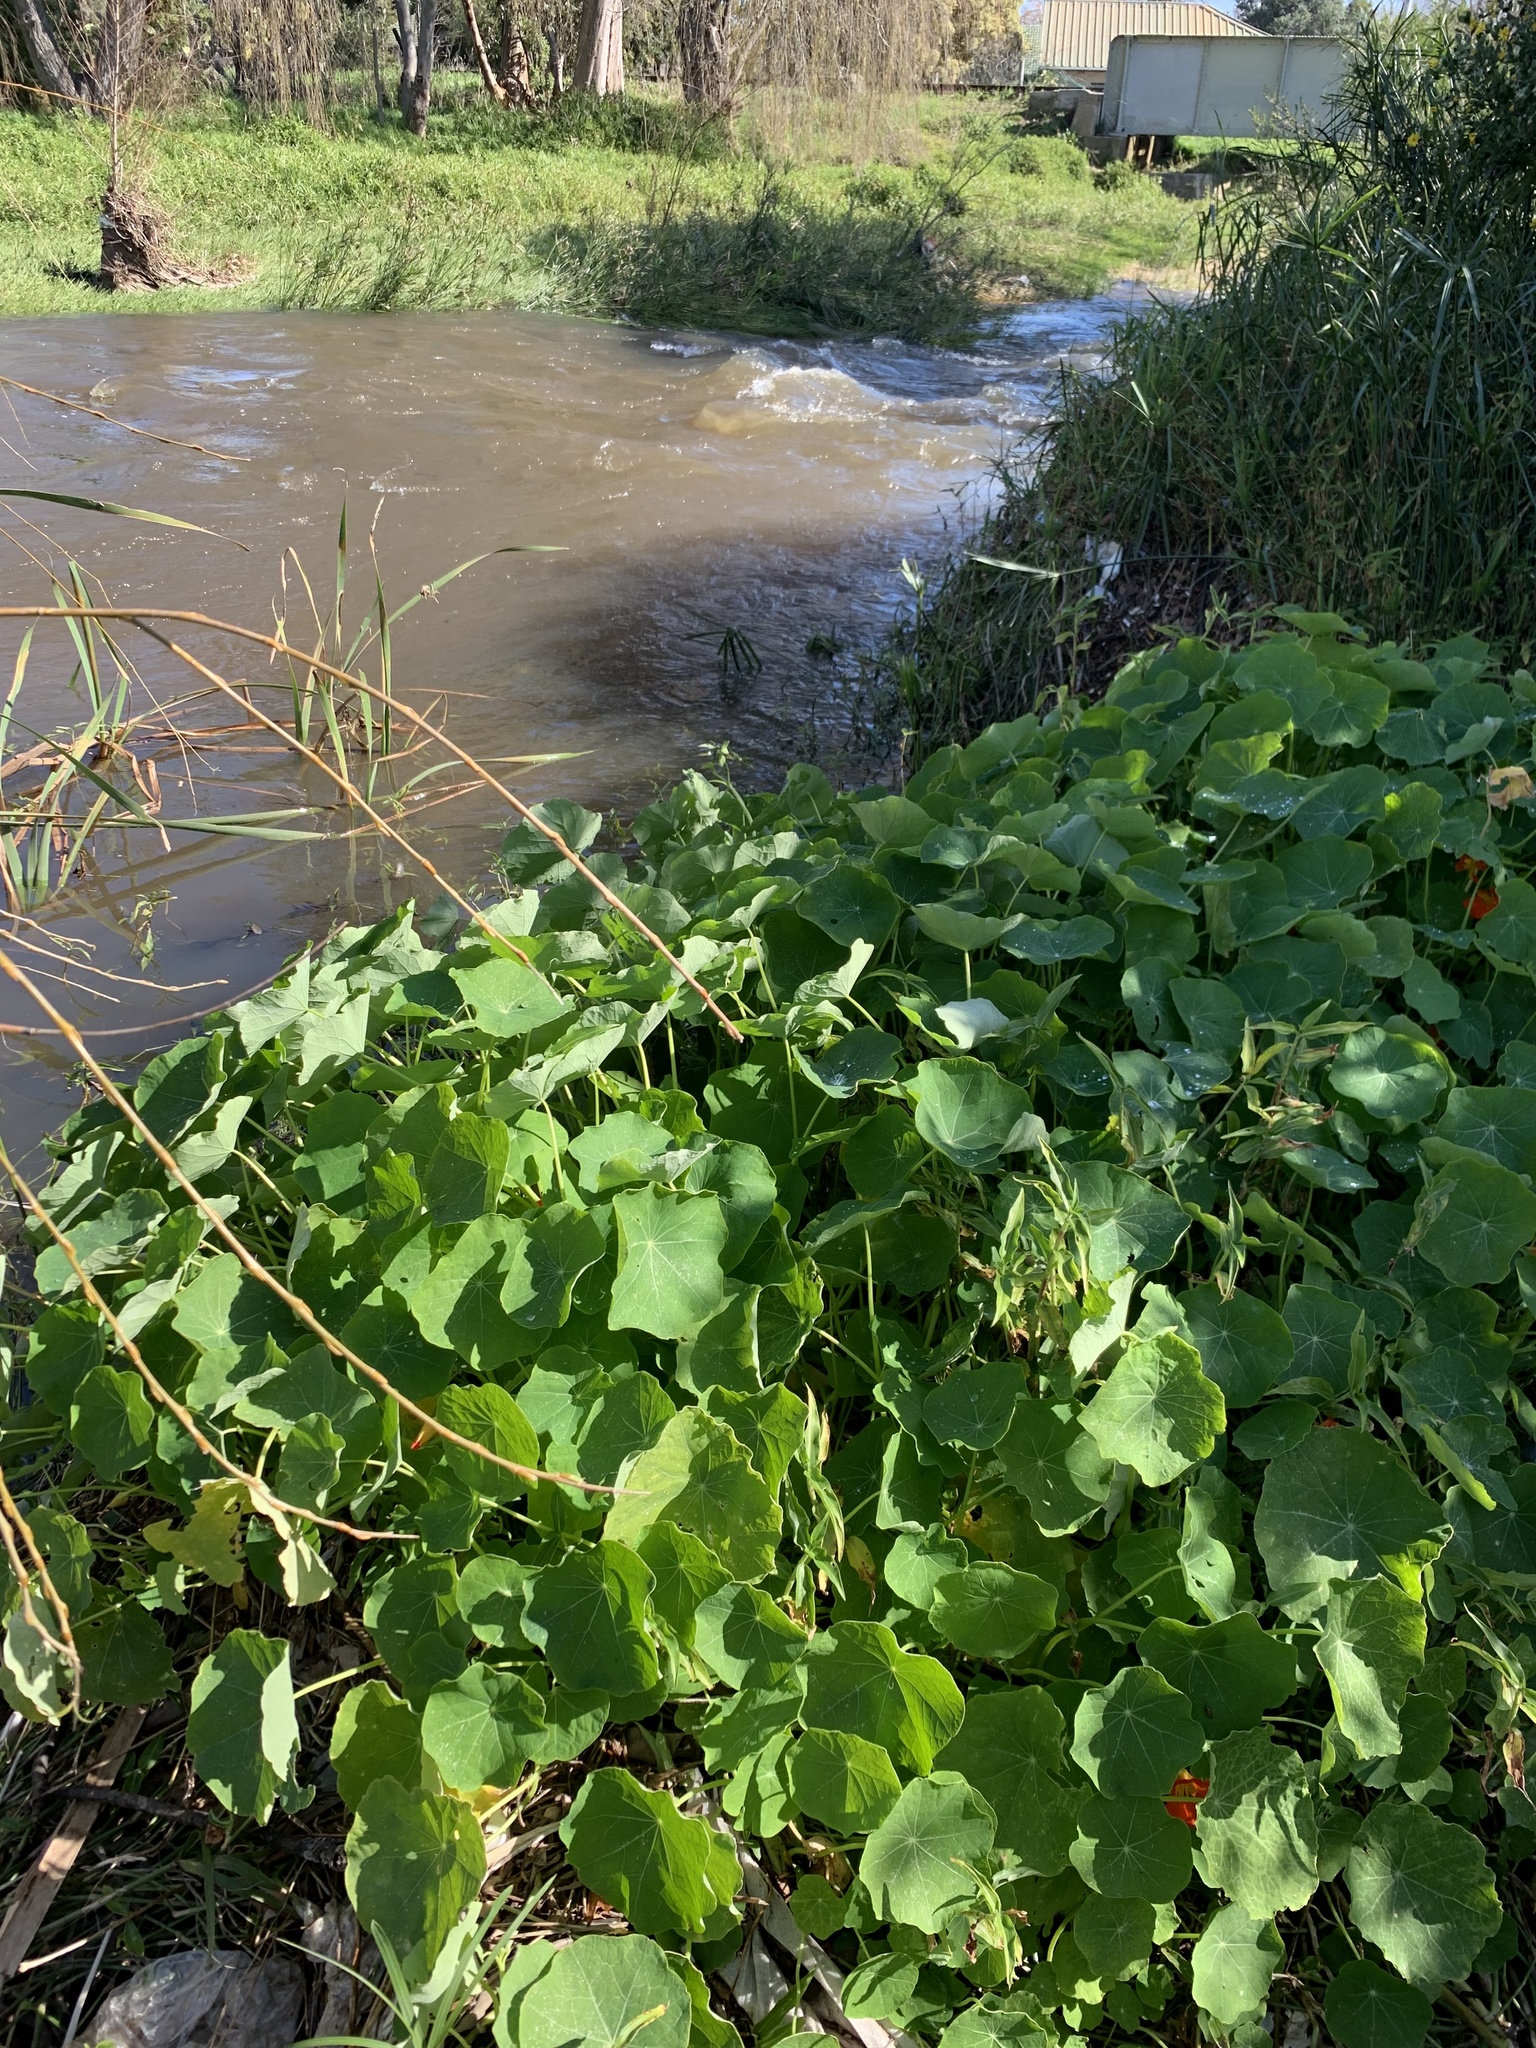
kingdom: Plantae
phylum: Tracheophyta
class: Magnoliopsida
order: Brassicales
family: Tropaeolaceae
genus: Tropaeolum
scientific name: Tropaeolum majus
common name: Nasturtium
